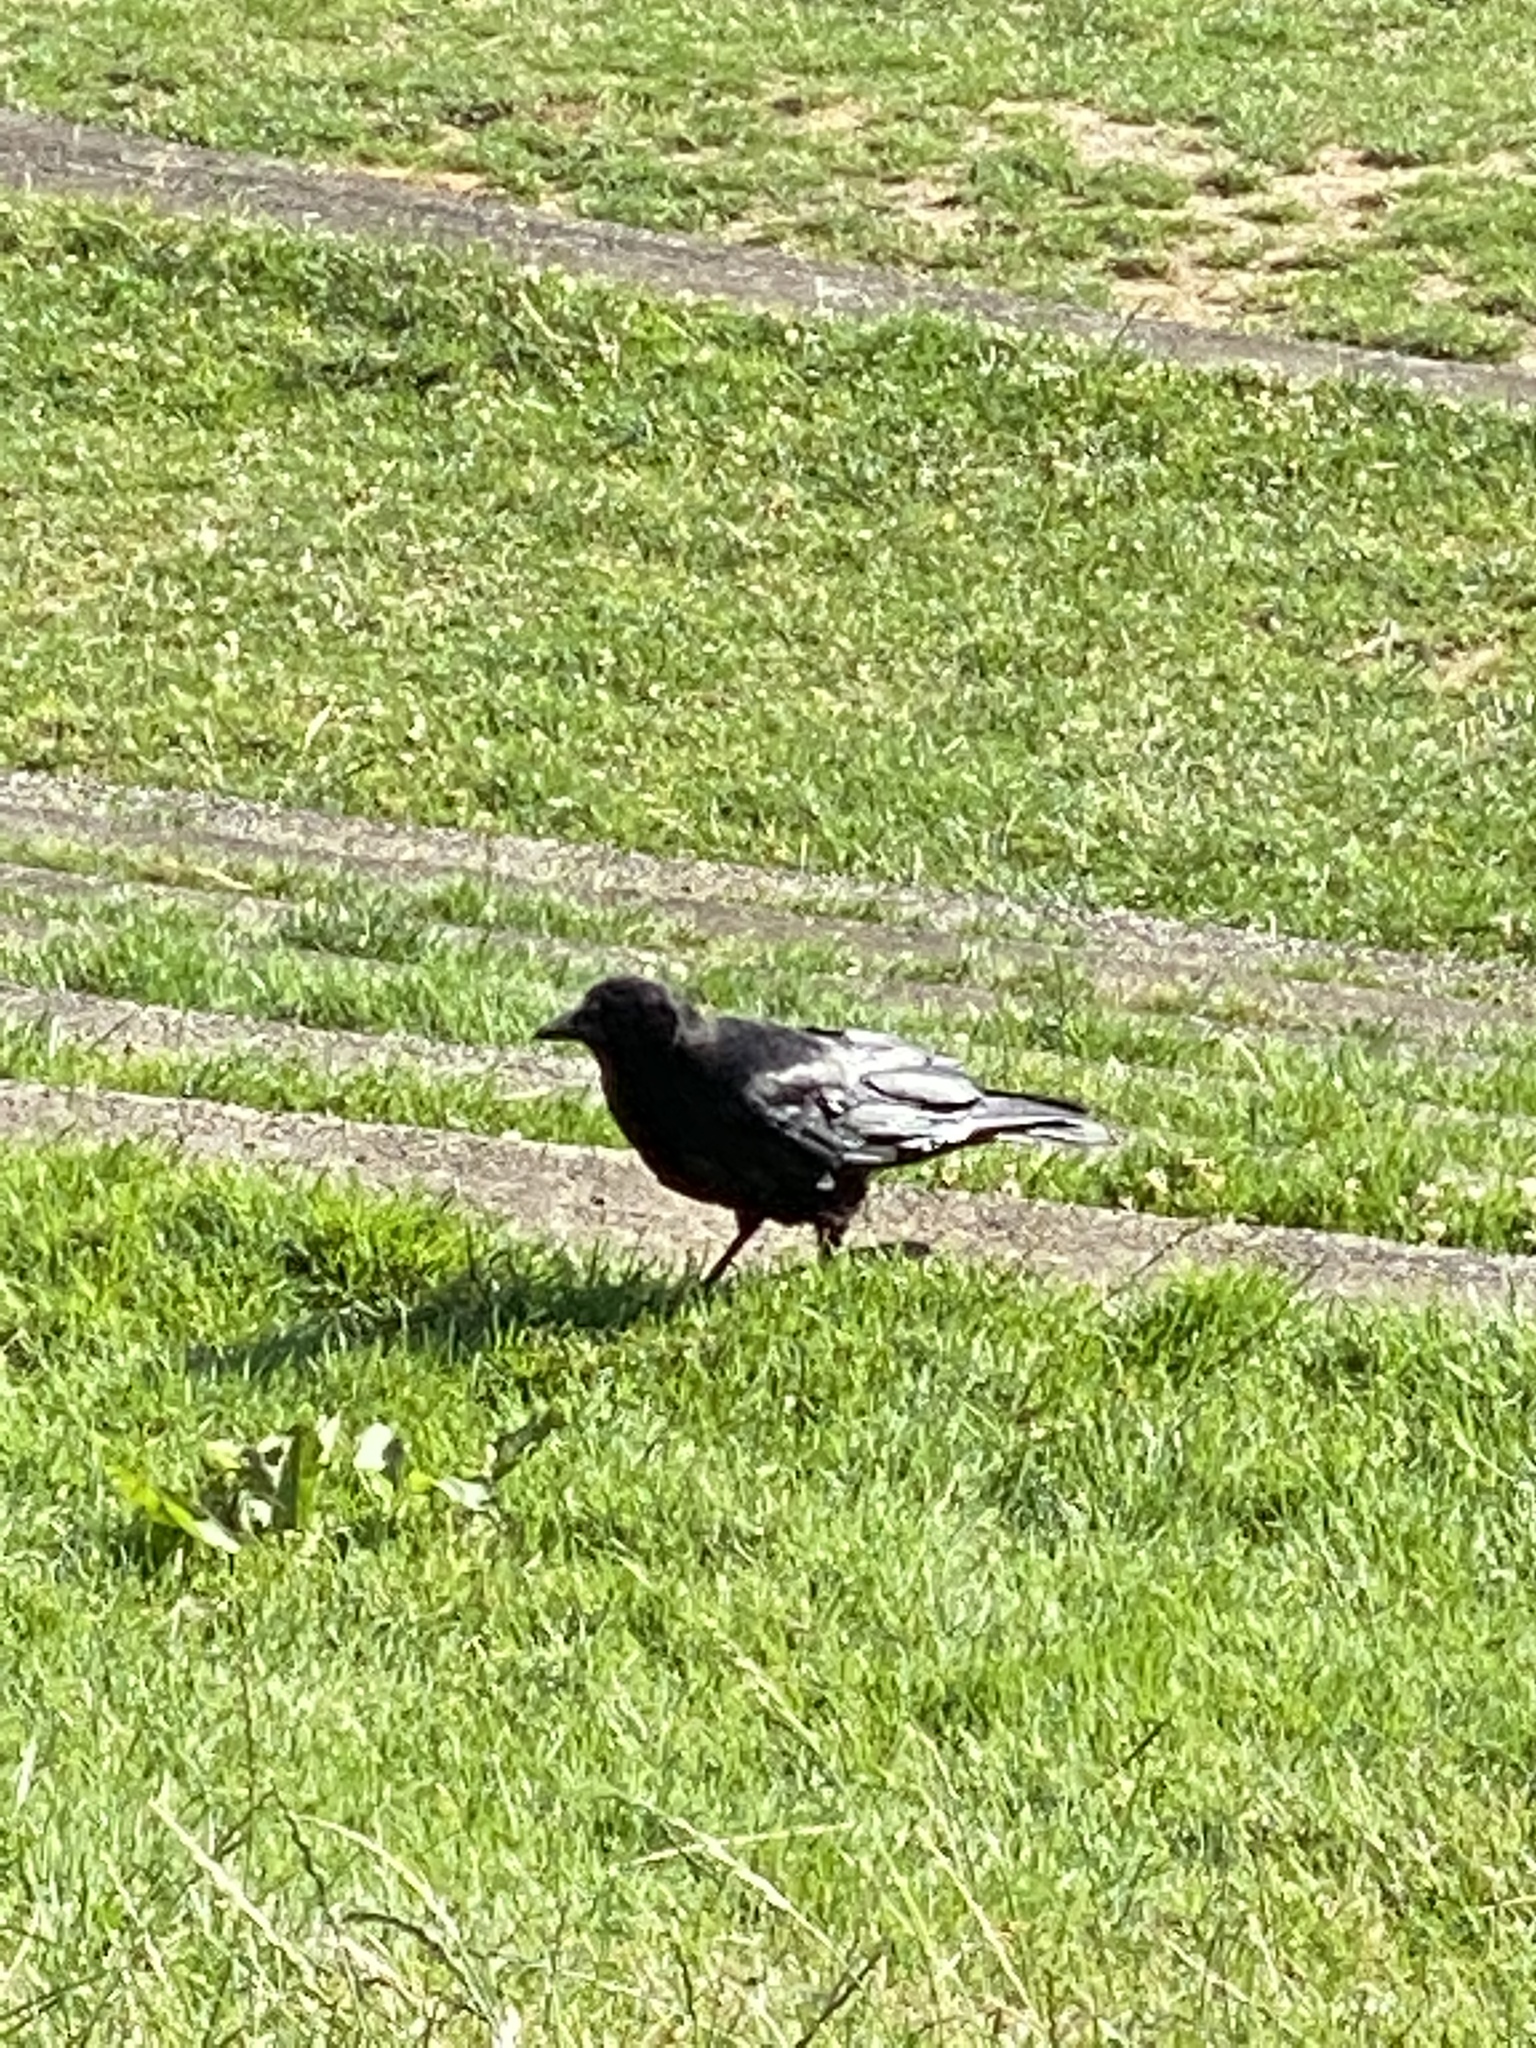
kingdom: Animalia
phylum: Chordata
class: Aves
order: Passeriformes
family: Corvidae
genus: Corvus
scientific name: Corvus brachyrhynchos
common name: American crow
